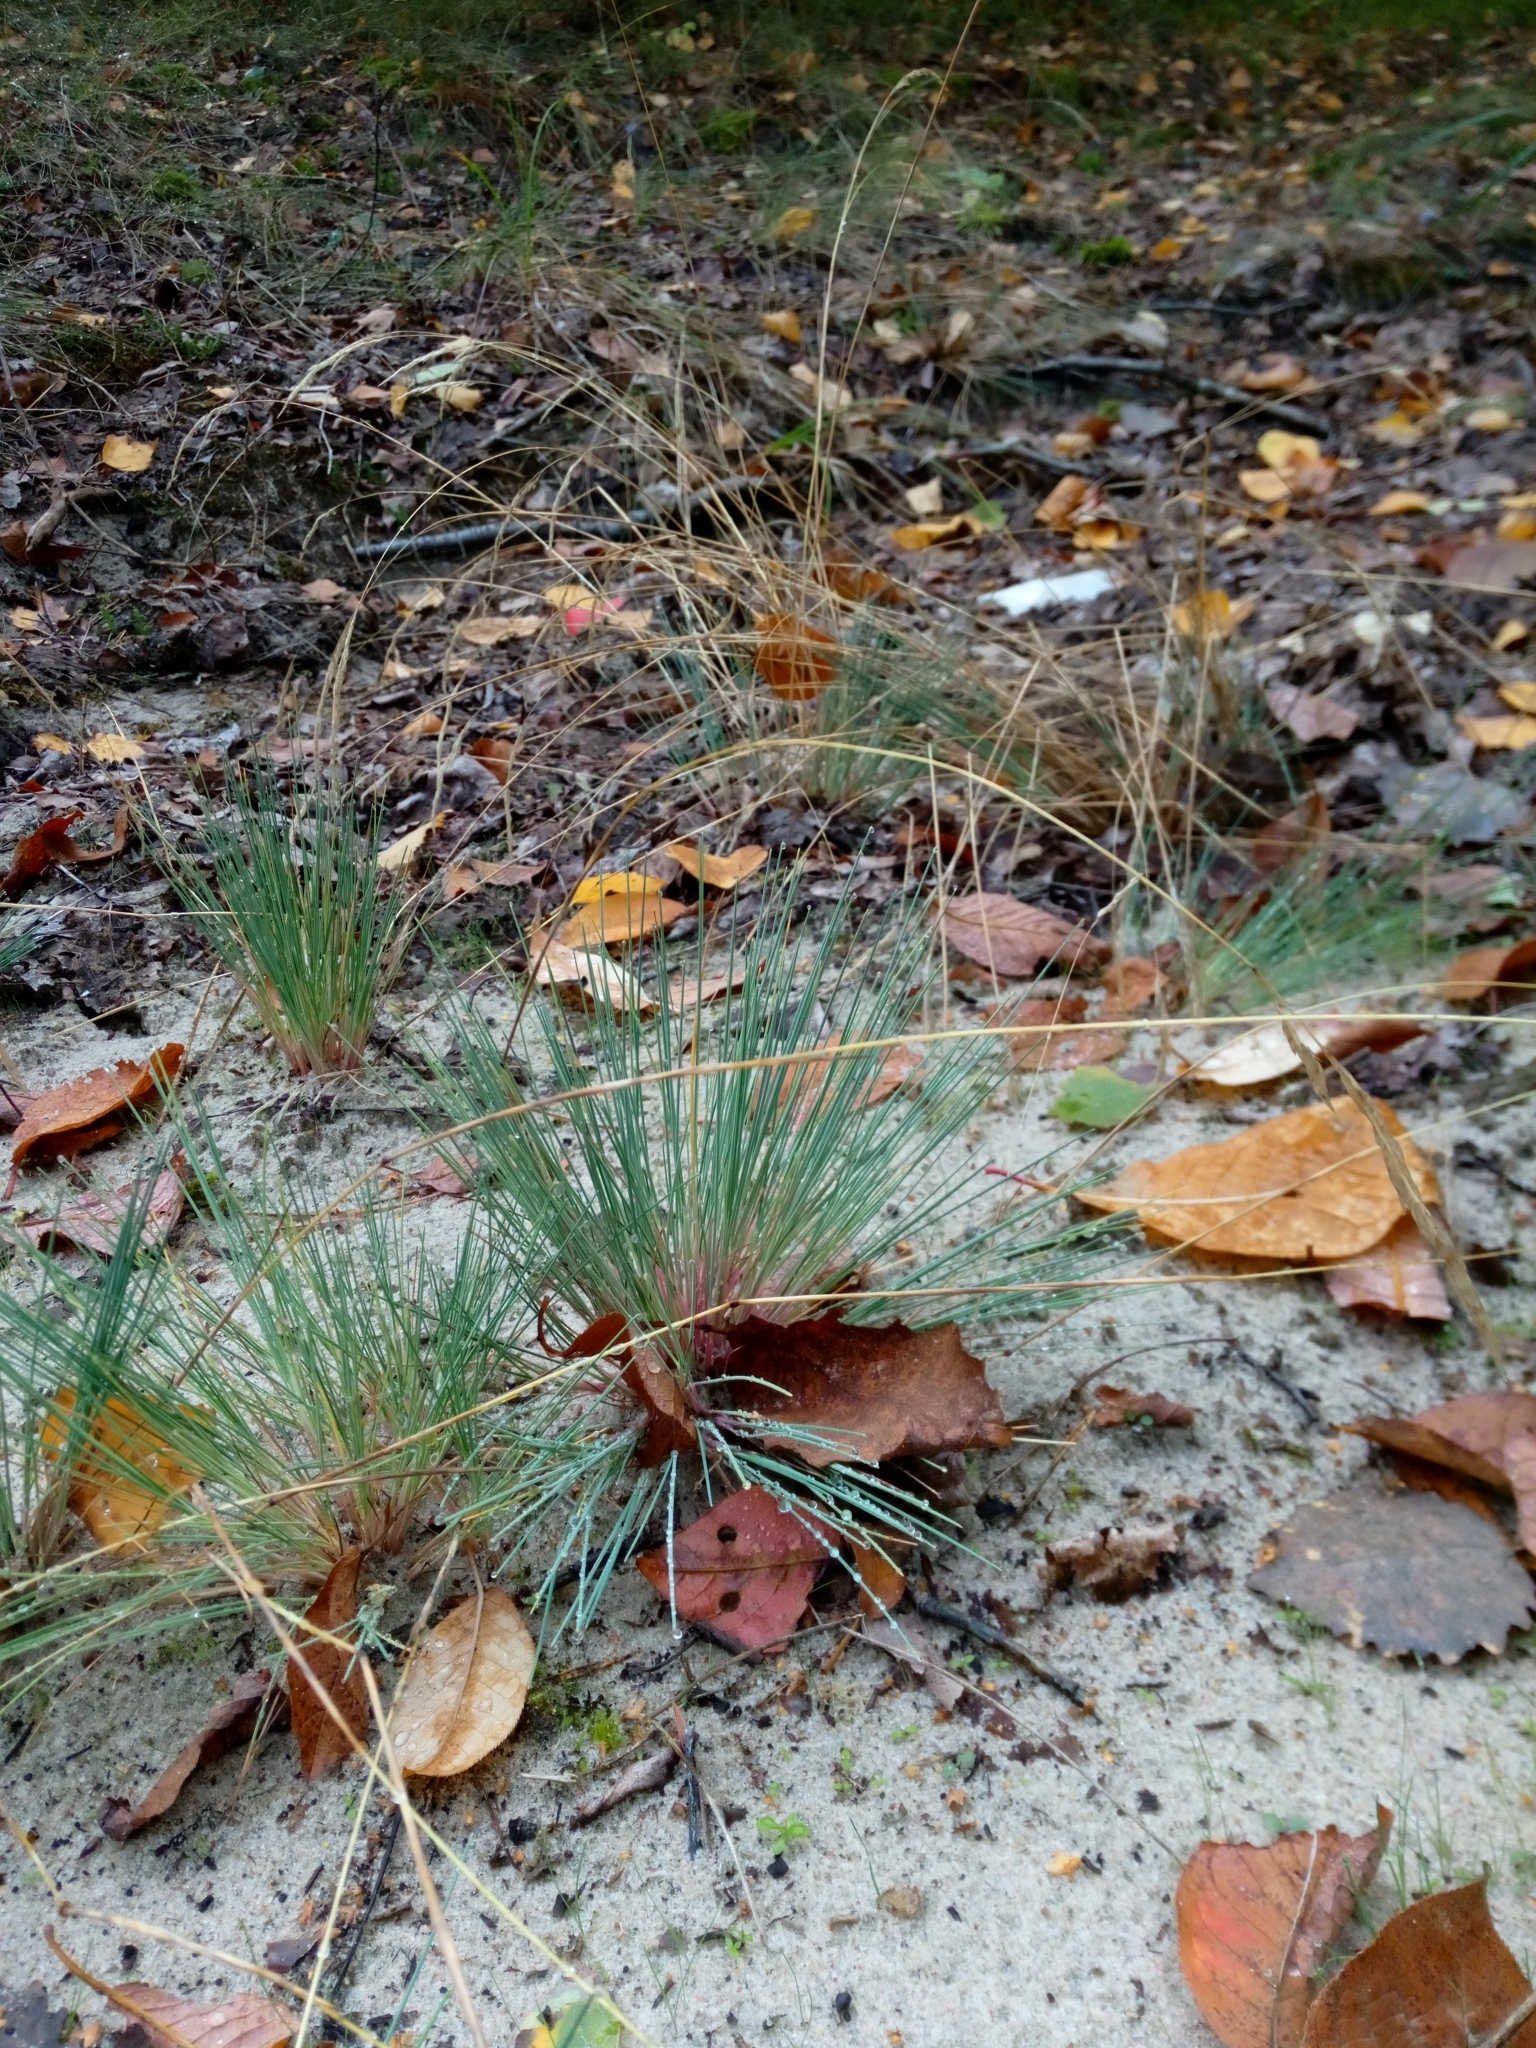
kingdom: Plantae
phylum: Tracheophyta
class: Liliopsida
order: Poales
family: Poaceae
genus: Corynephorus
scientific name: Corynephorus canescens
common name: Grey hair-grass
